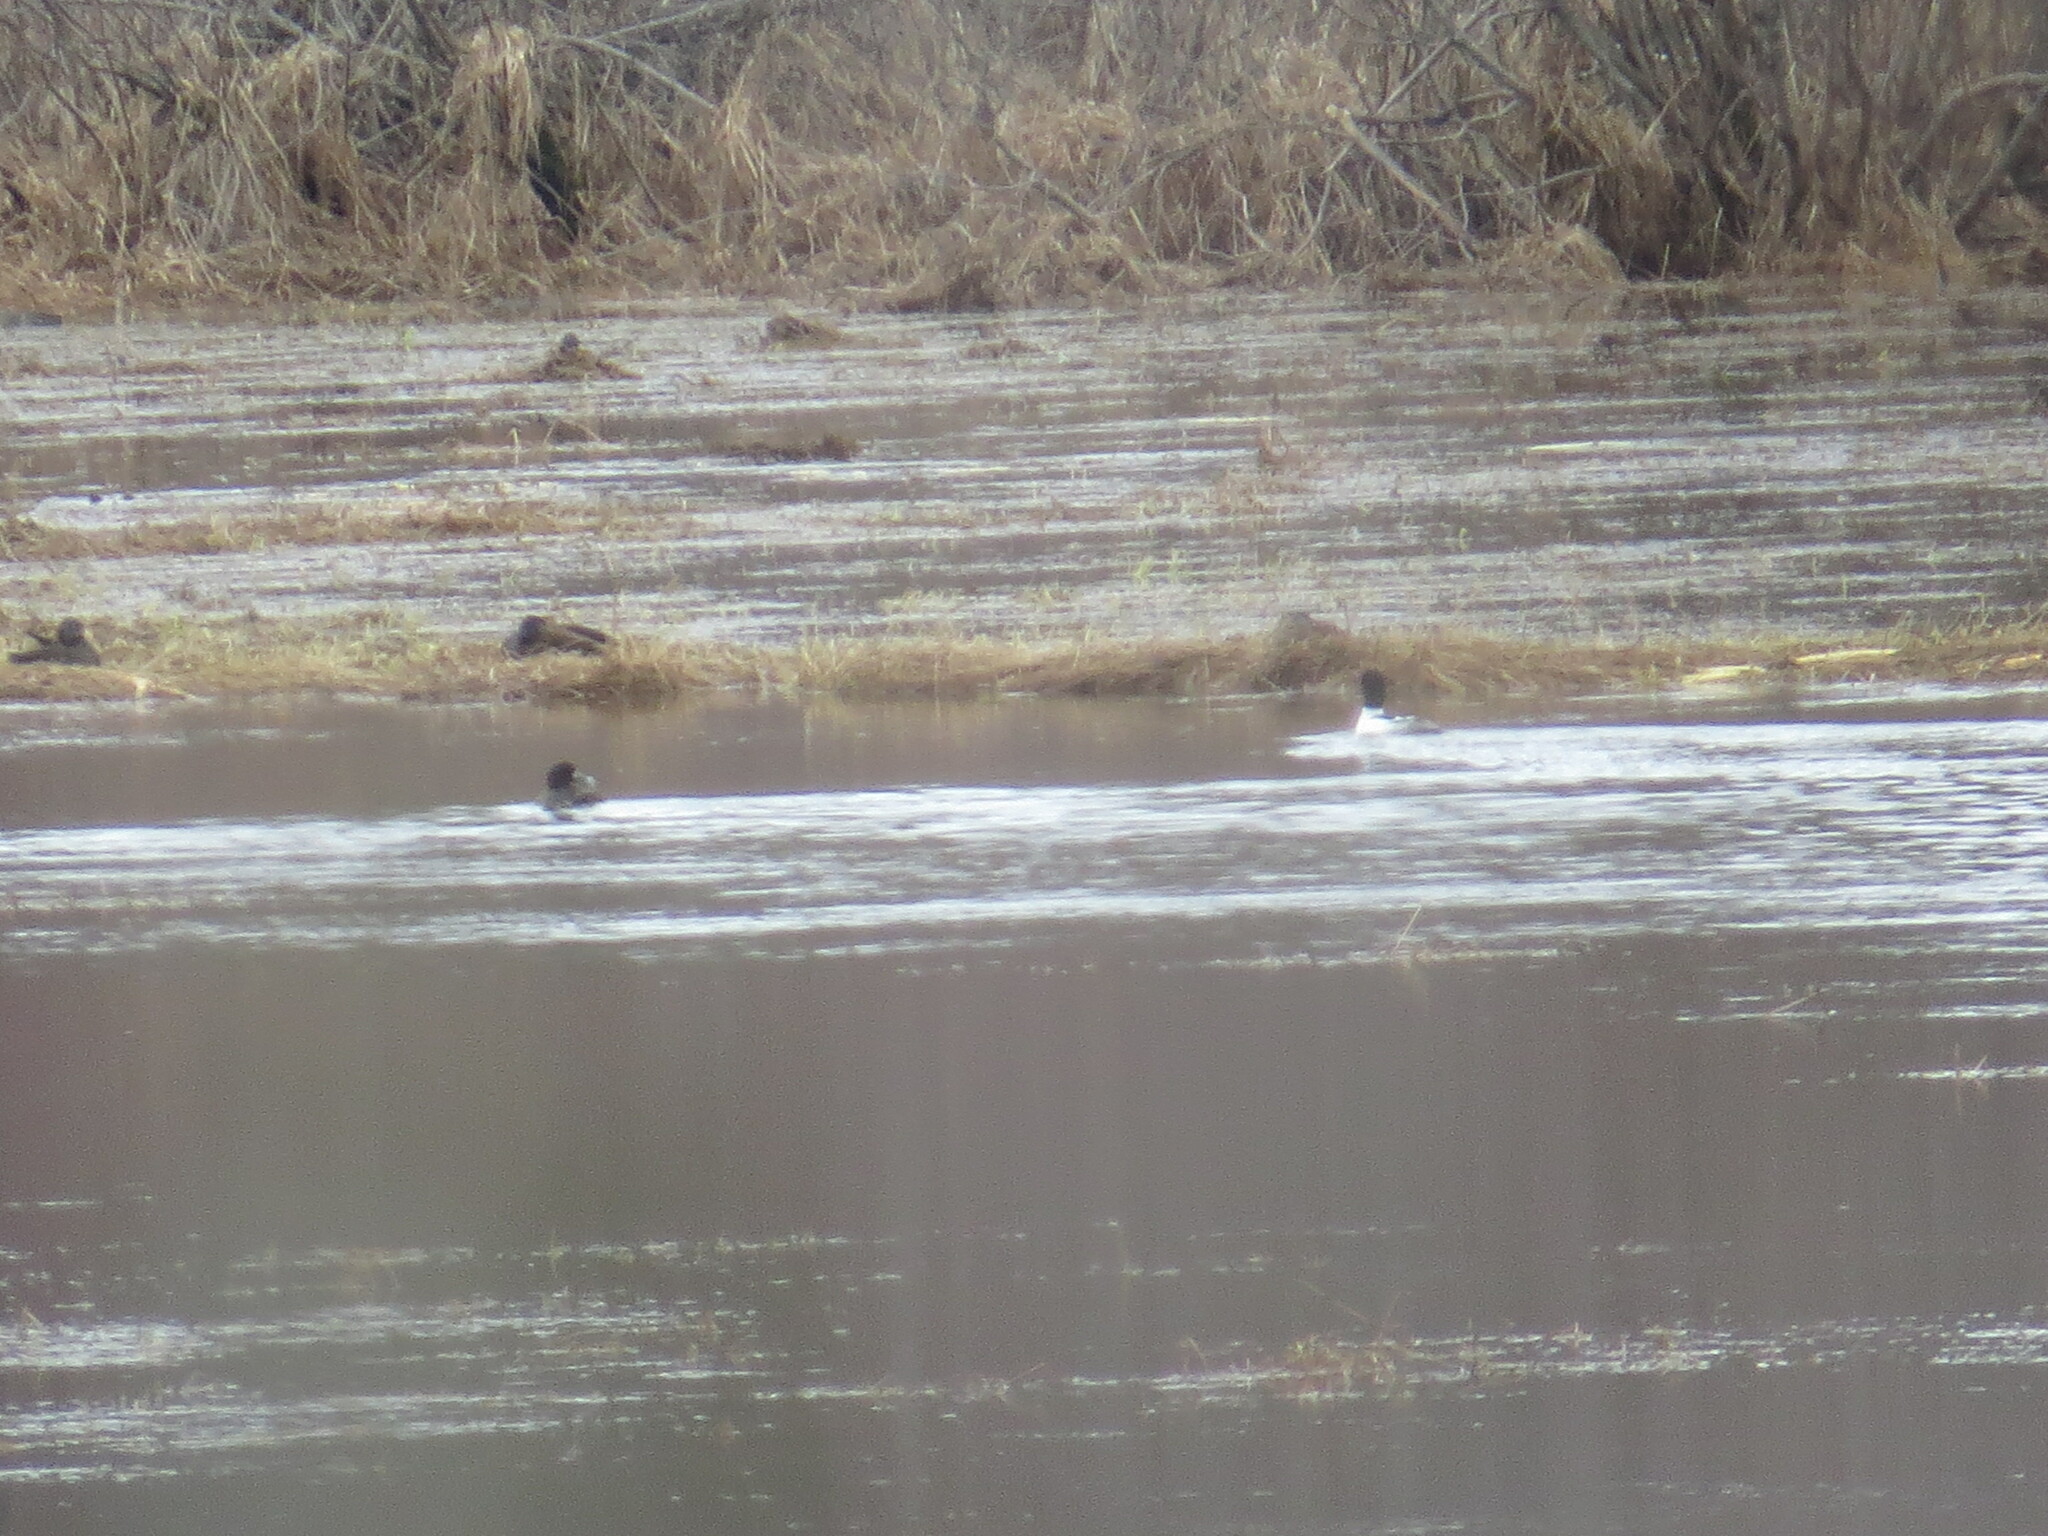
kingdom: Animalia
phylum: Chordata
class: Aves
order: Anseriformes
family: Anatidae
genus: Mergus
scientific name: Mergus merganser
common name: Common merganser
